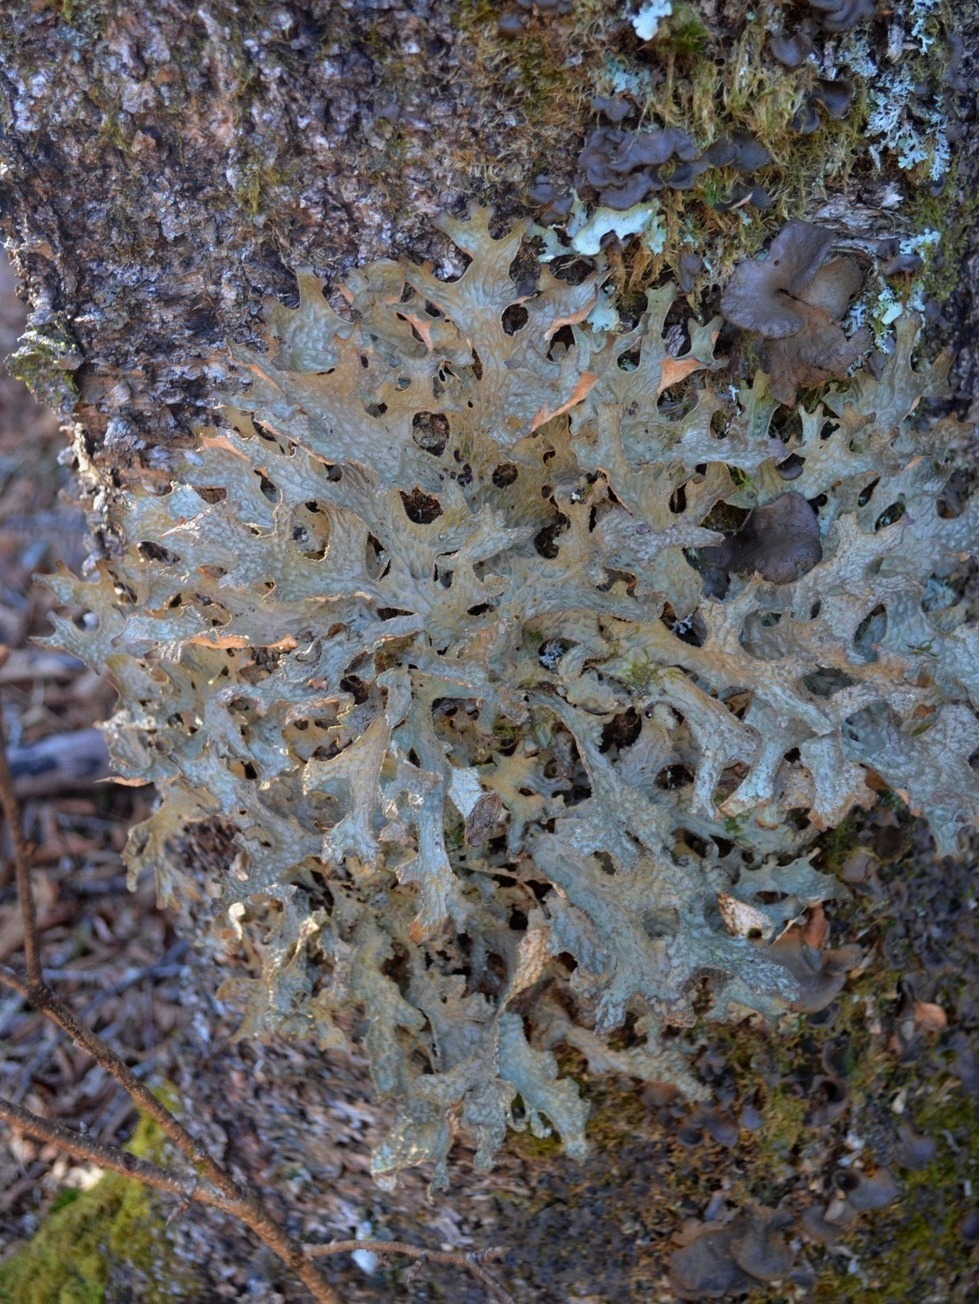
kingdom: Fungi
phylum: Ascomycota
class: Lecanoromycetes
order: Peltigerales
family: Lobariaceae
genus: Lobaria
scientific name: Lobaria pulmonaria
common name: Lungwort
